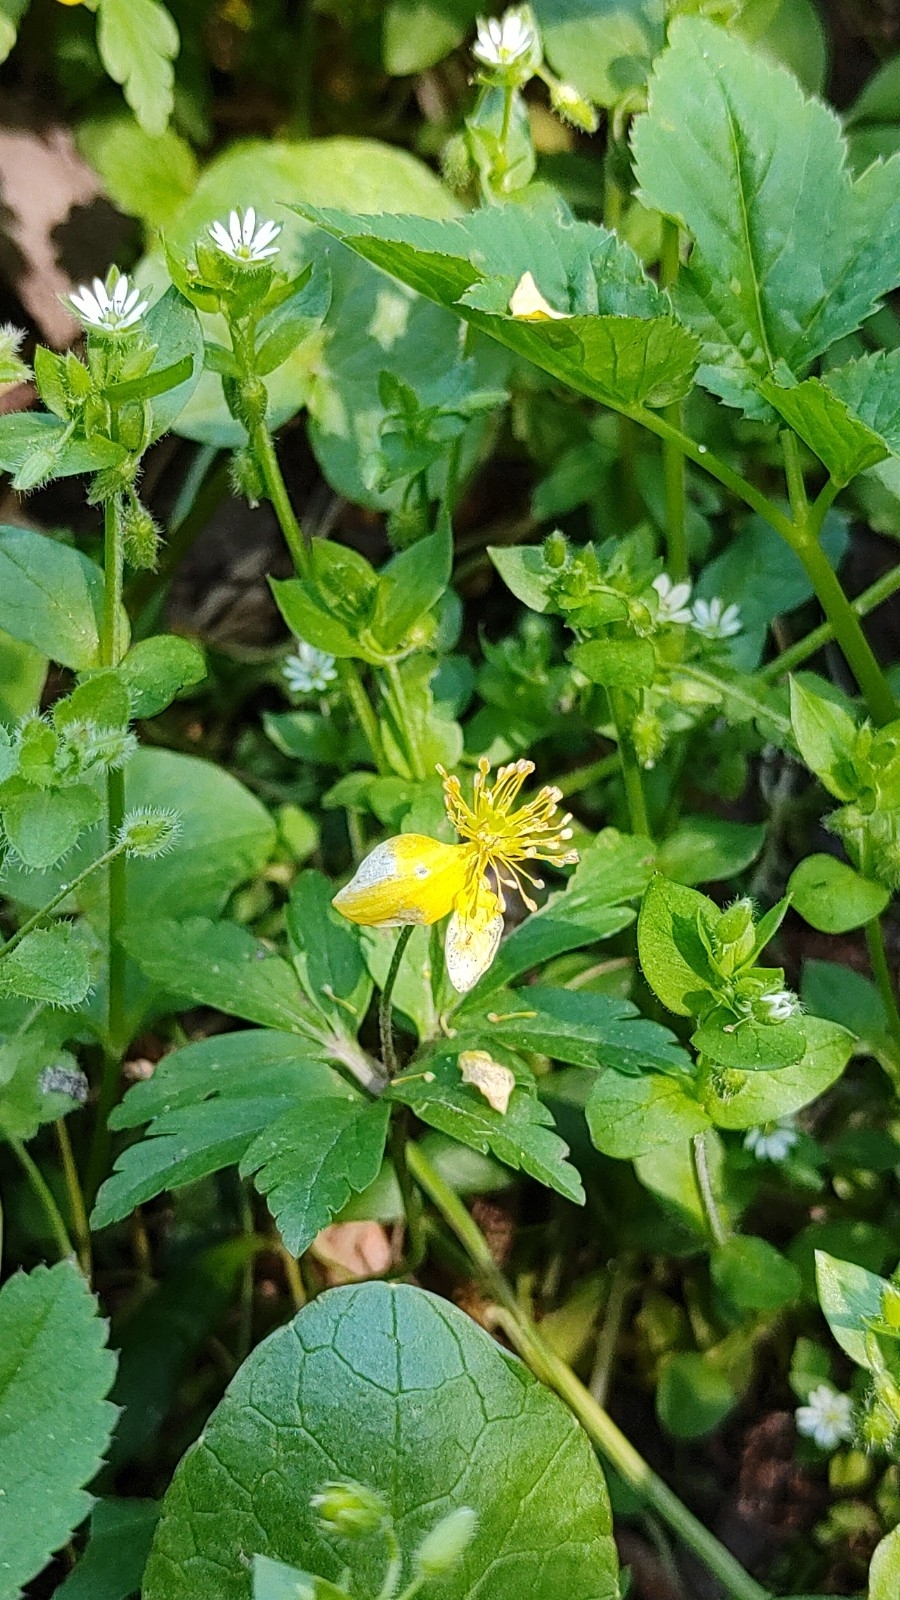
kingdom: Plantae
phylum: Tracheophyta
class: Magnoliopsida
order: Ranunculales
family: Ranunculaceae
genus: Anemone
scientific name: Anemone ranunculoides
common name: Yellow anemone
